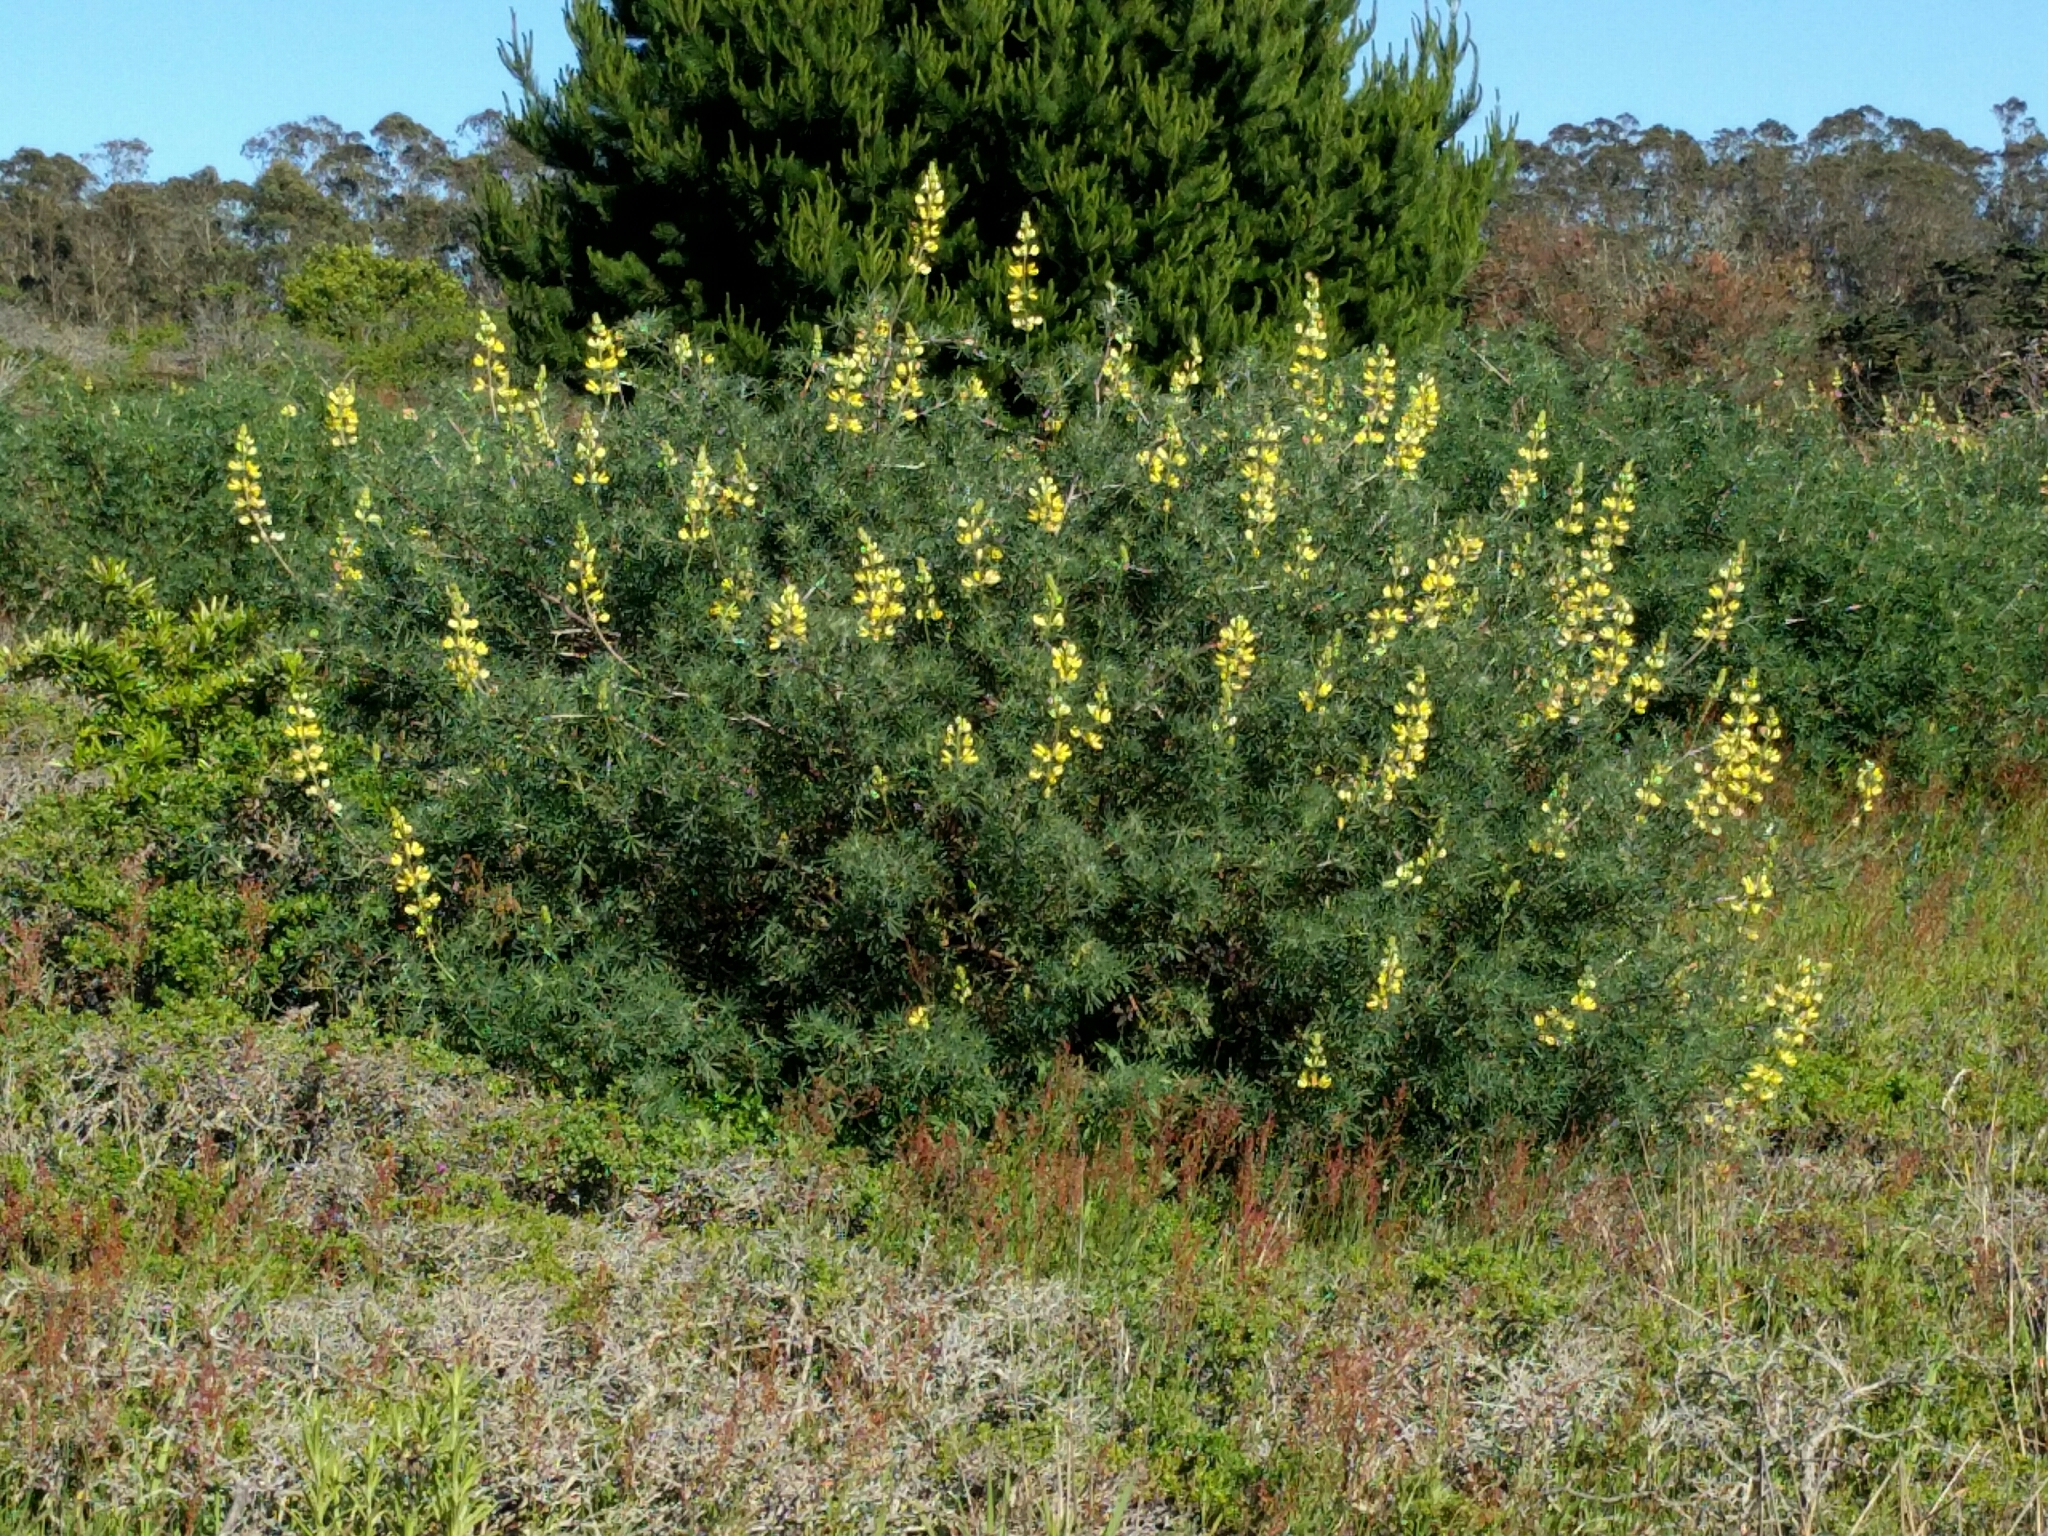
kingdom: Plantae
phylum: Tracheophyta
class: Magnoliopsida
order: Fabales
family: Fabaceae
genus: Lupinus
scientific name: Lupinus arboreus
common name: Yellow bush lupine
